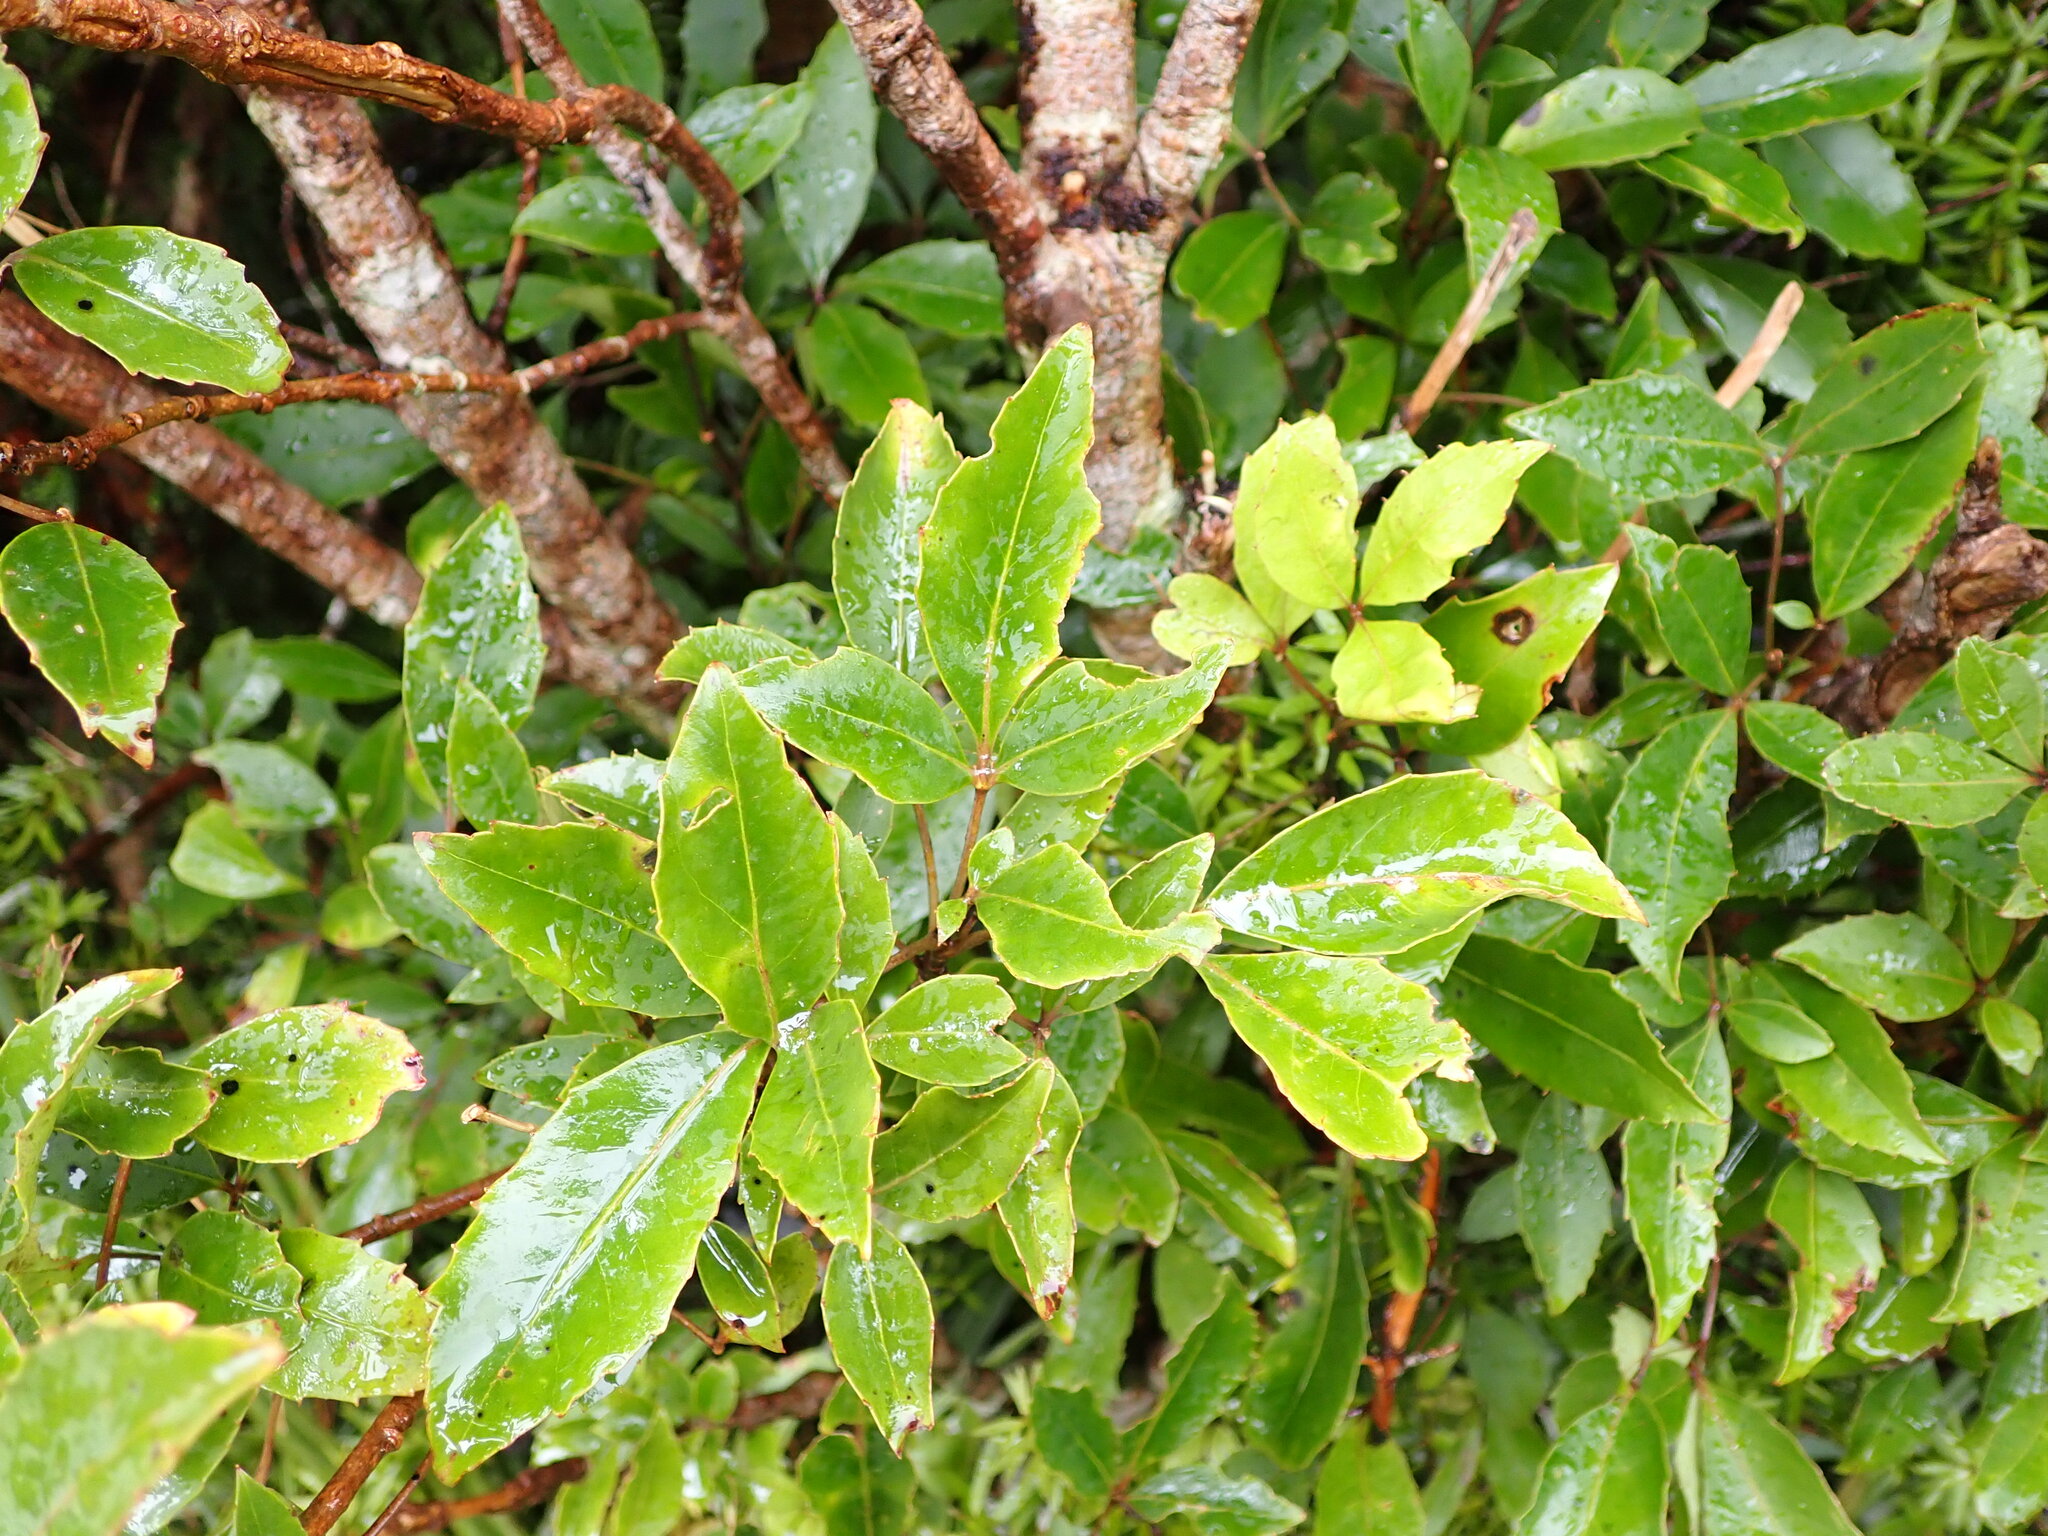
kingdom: Plantae
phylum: Tracheophyta
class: Magnoliopsida
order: Apiales
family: Araliaceae
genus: Raukaua
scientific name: Raukaua simplex
